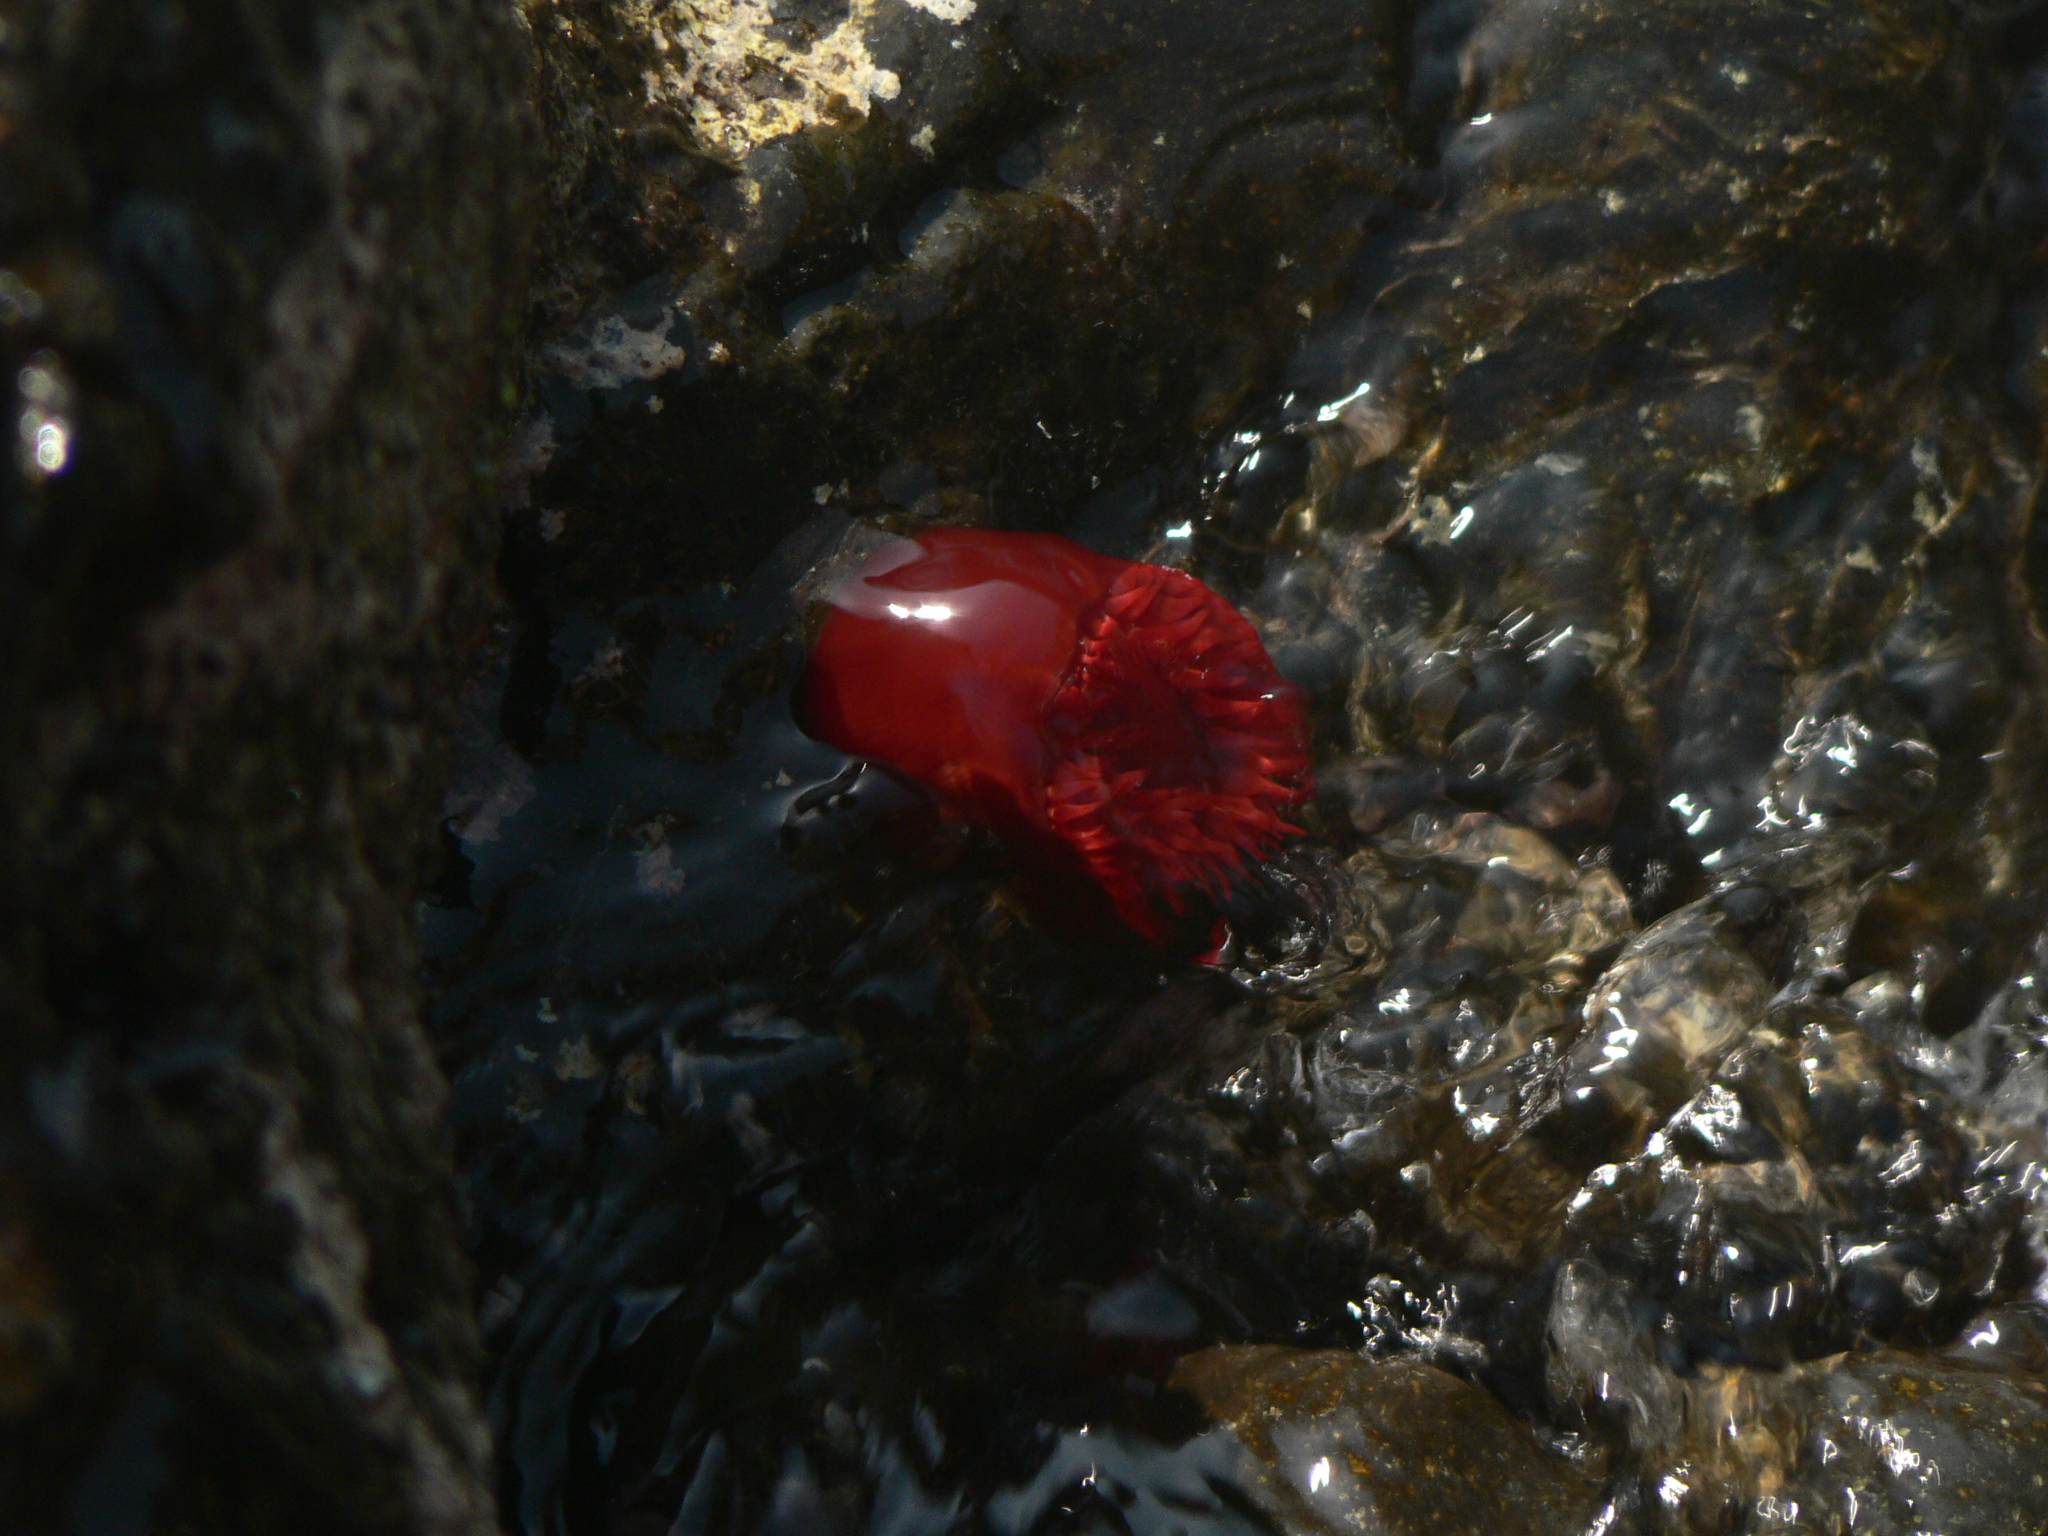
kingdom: Animalia
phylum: Cnidaria
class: Anthozoa
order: Actiniaria
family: Actiniidae
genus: Actinia
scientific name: Actinia tabella
